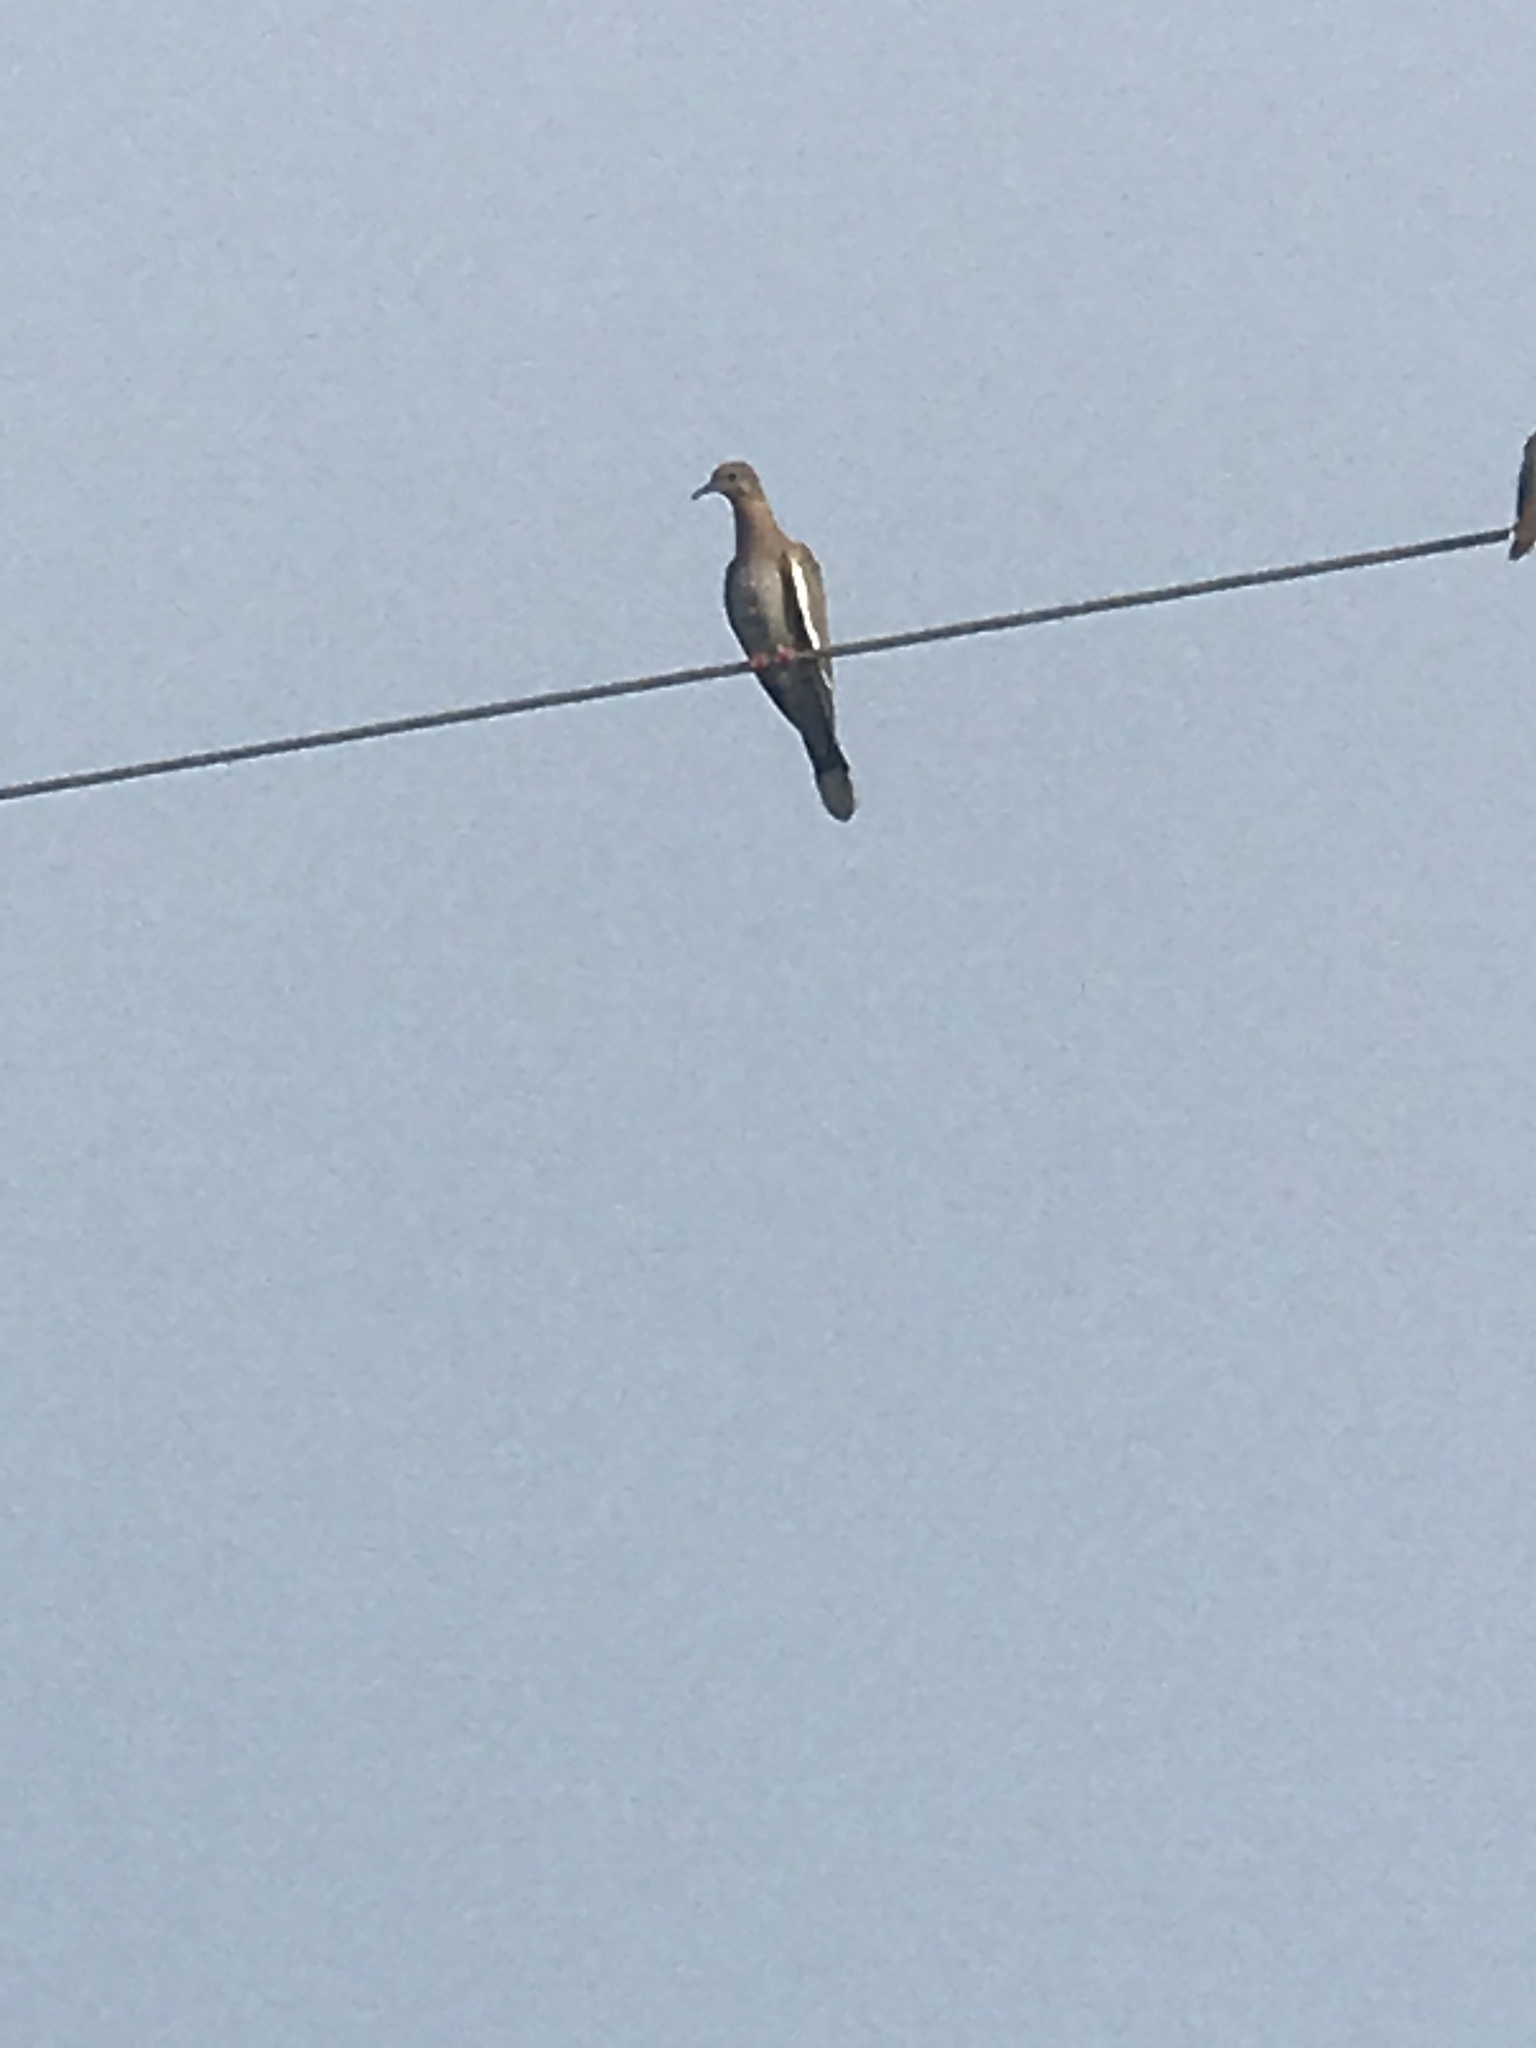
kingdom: Animalia
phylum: Chordata
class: Aves
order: Columbiformes
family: Columbidae
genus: Zenaida
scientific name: Zenaida asiatica
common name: White-winged dove
